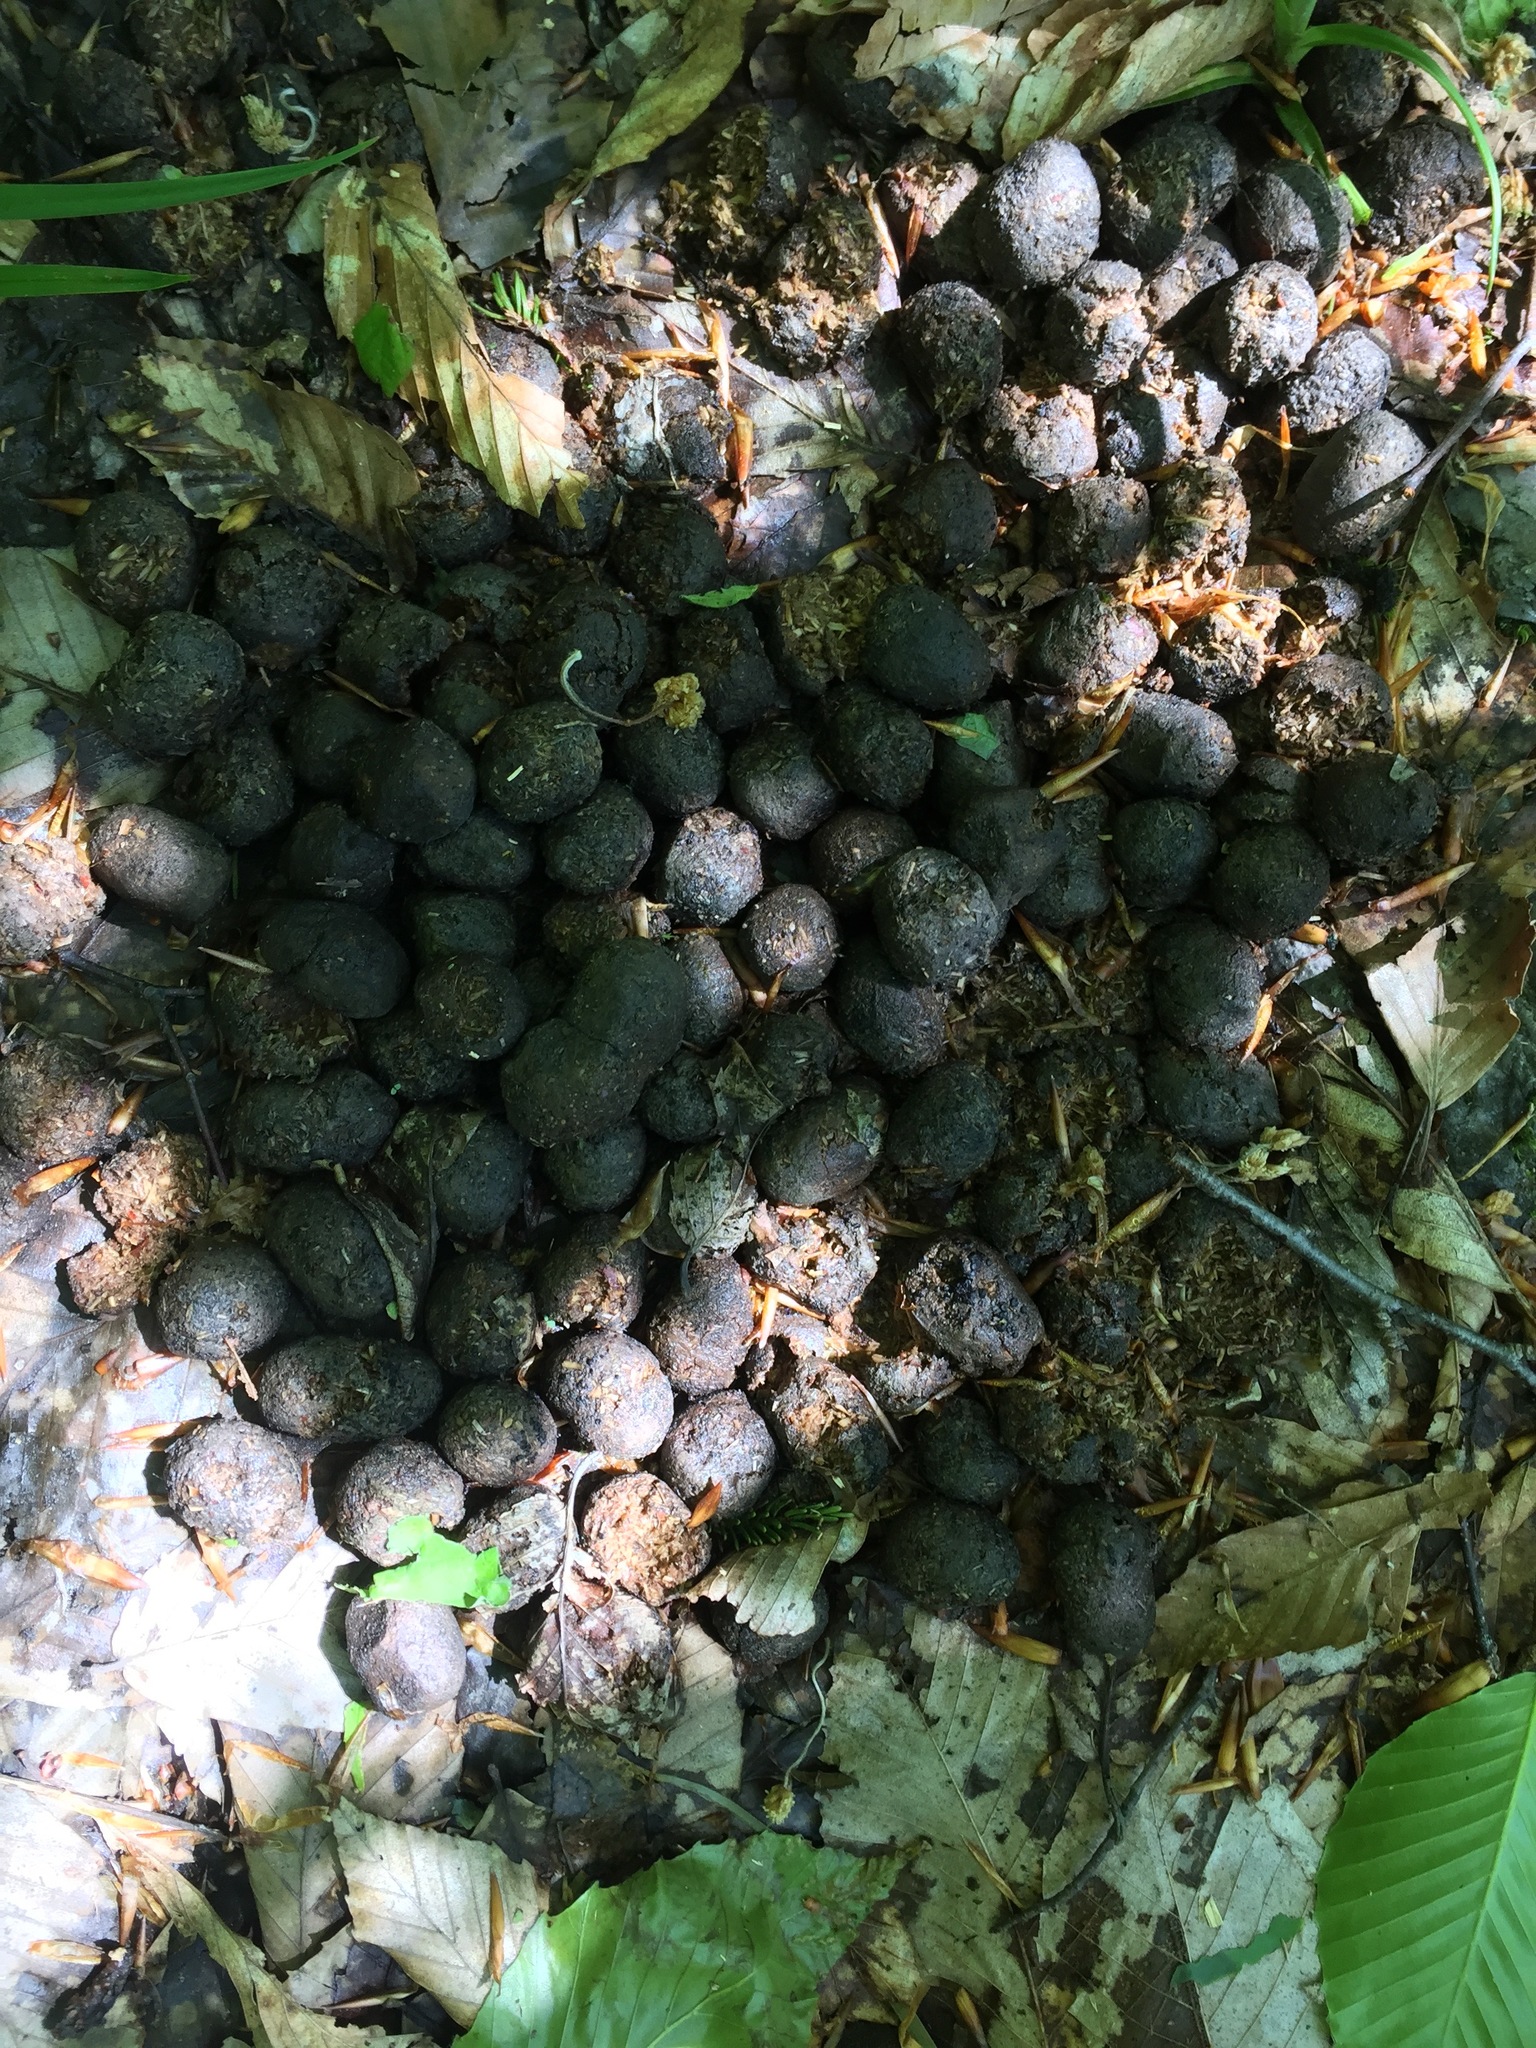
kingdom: Animalia
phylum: Chordata
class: Mammalia
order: Artiodactyla
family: Cervidae
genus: Odocoileus
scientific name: Odocoileus virginianus
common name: White-tailed deer
